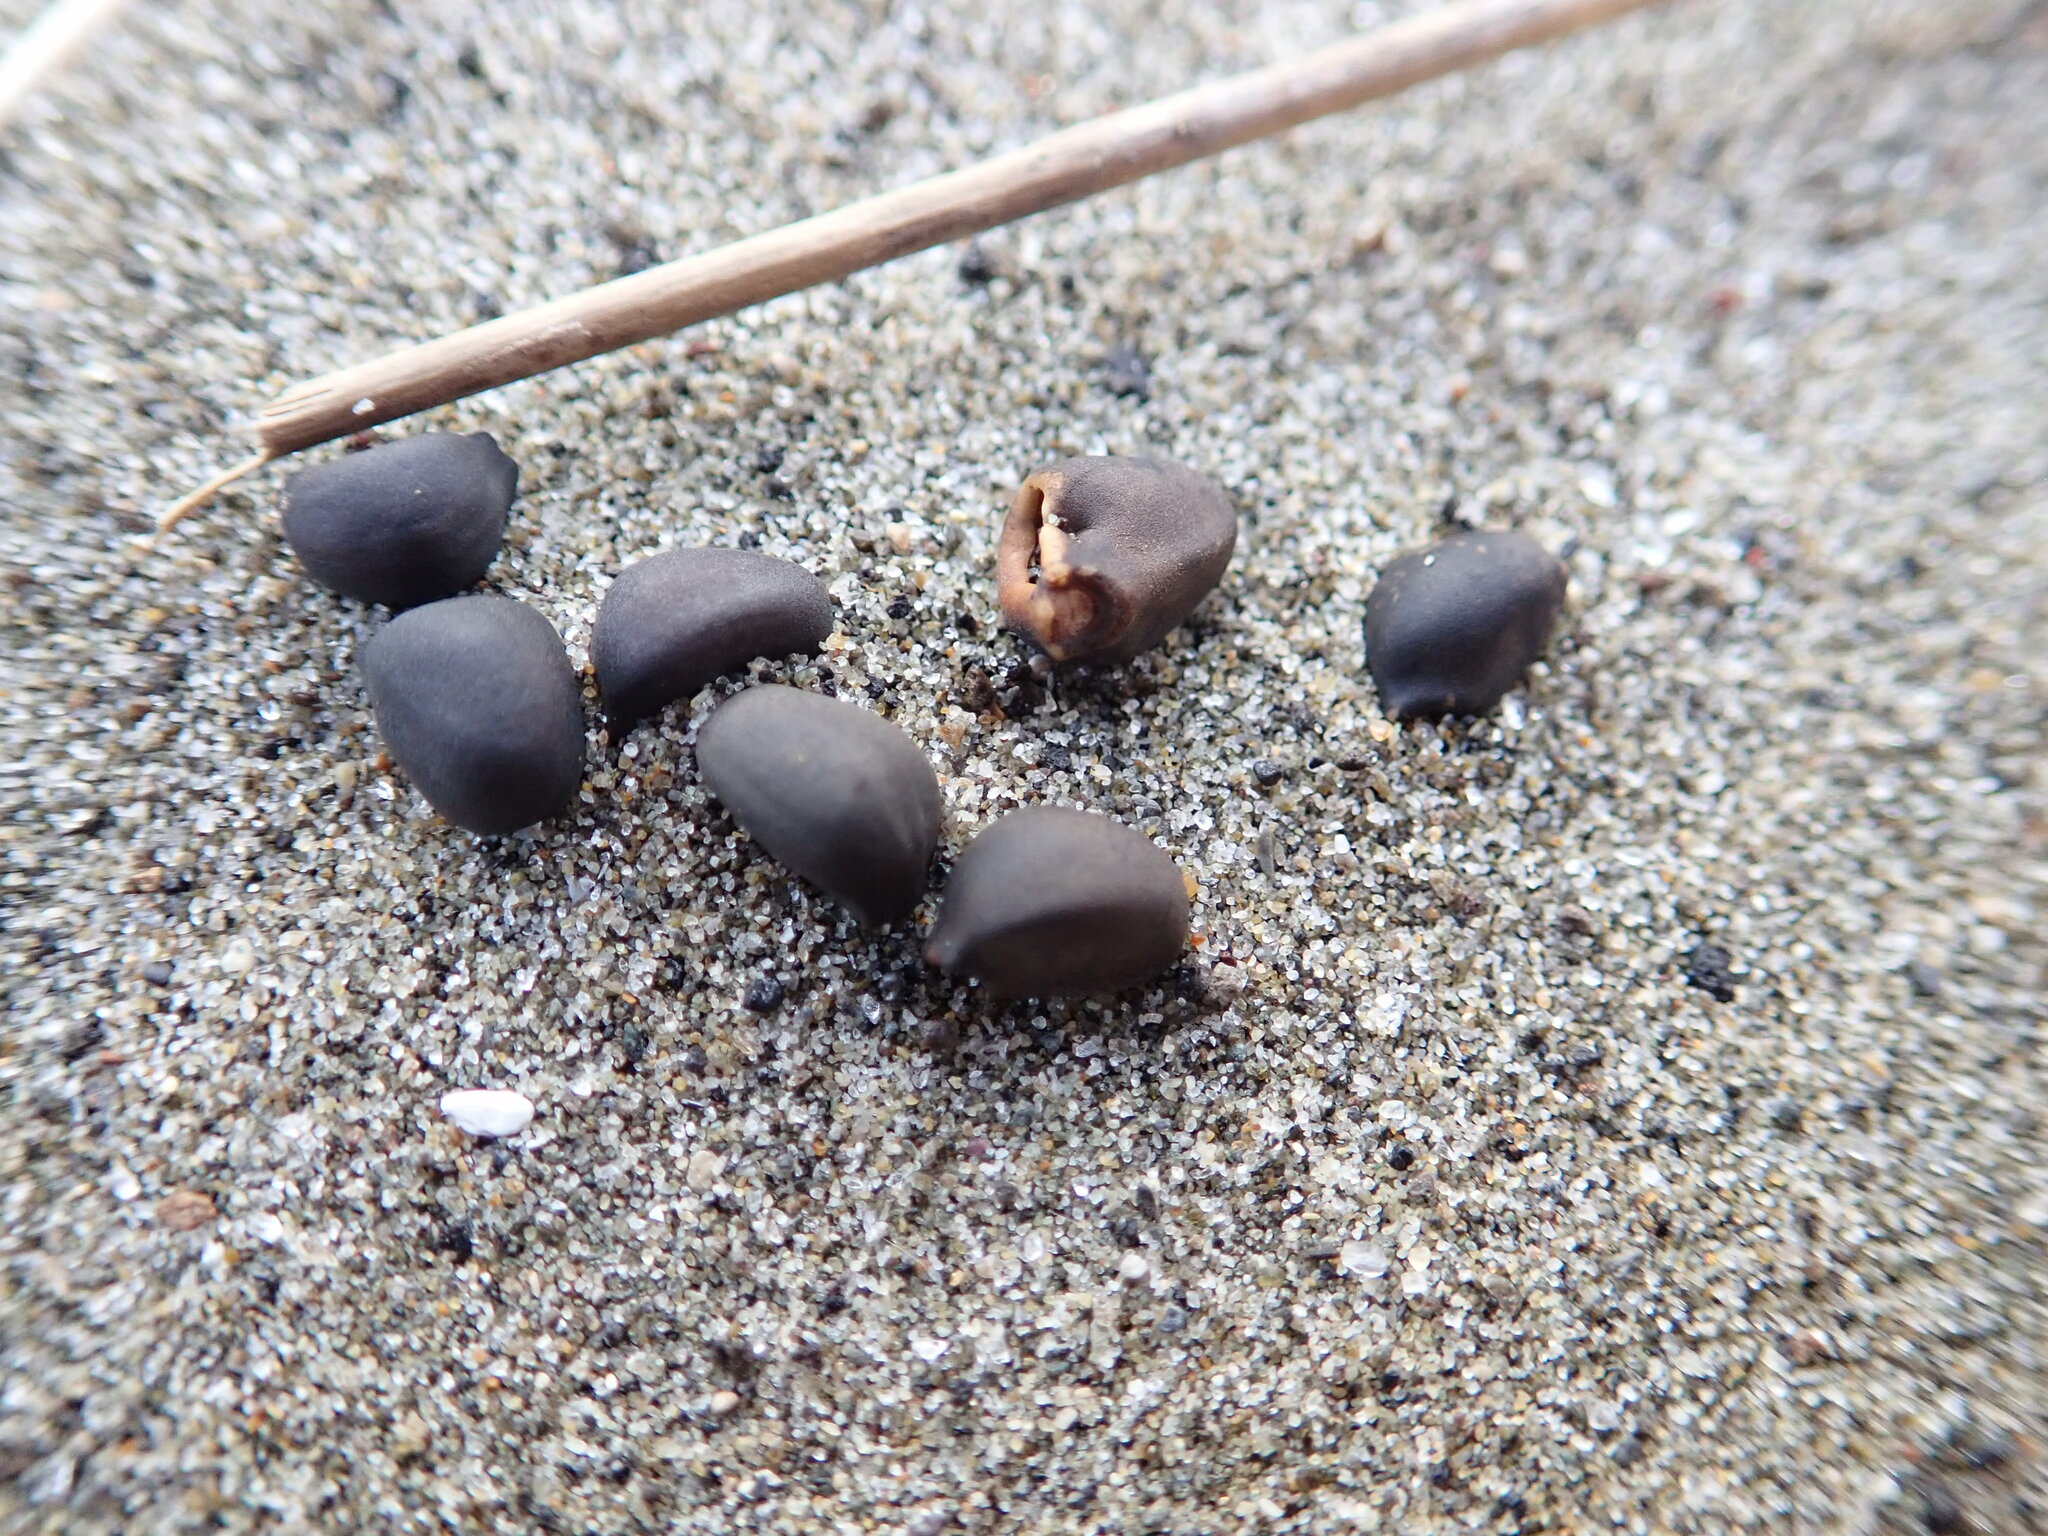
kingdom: Plantae
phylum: Tracheophyta
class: Magnoliopsida
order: Solanales
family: Convolvulaceae
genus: Calystegia
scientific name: Calystegia soldanella
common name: Sea bindweed
